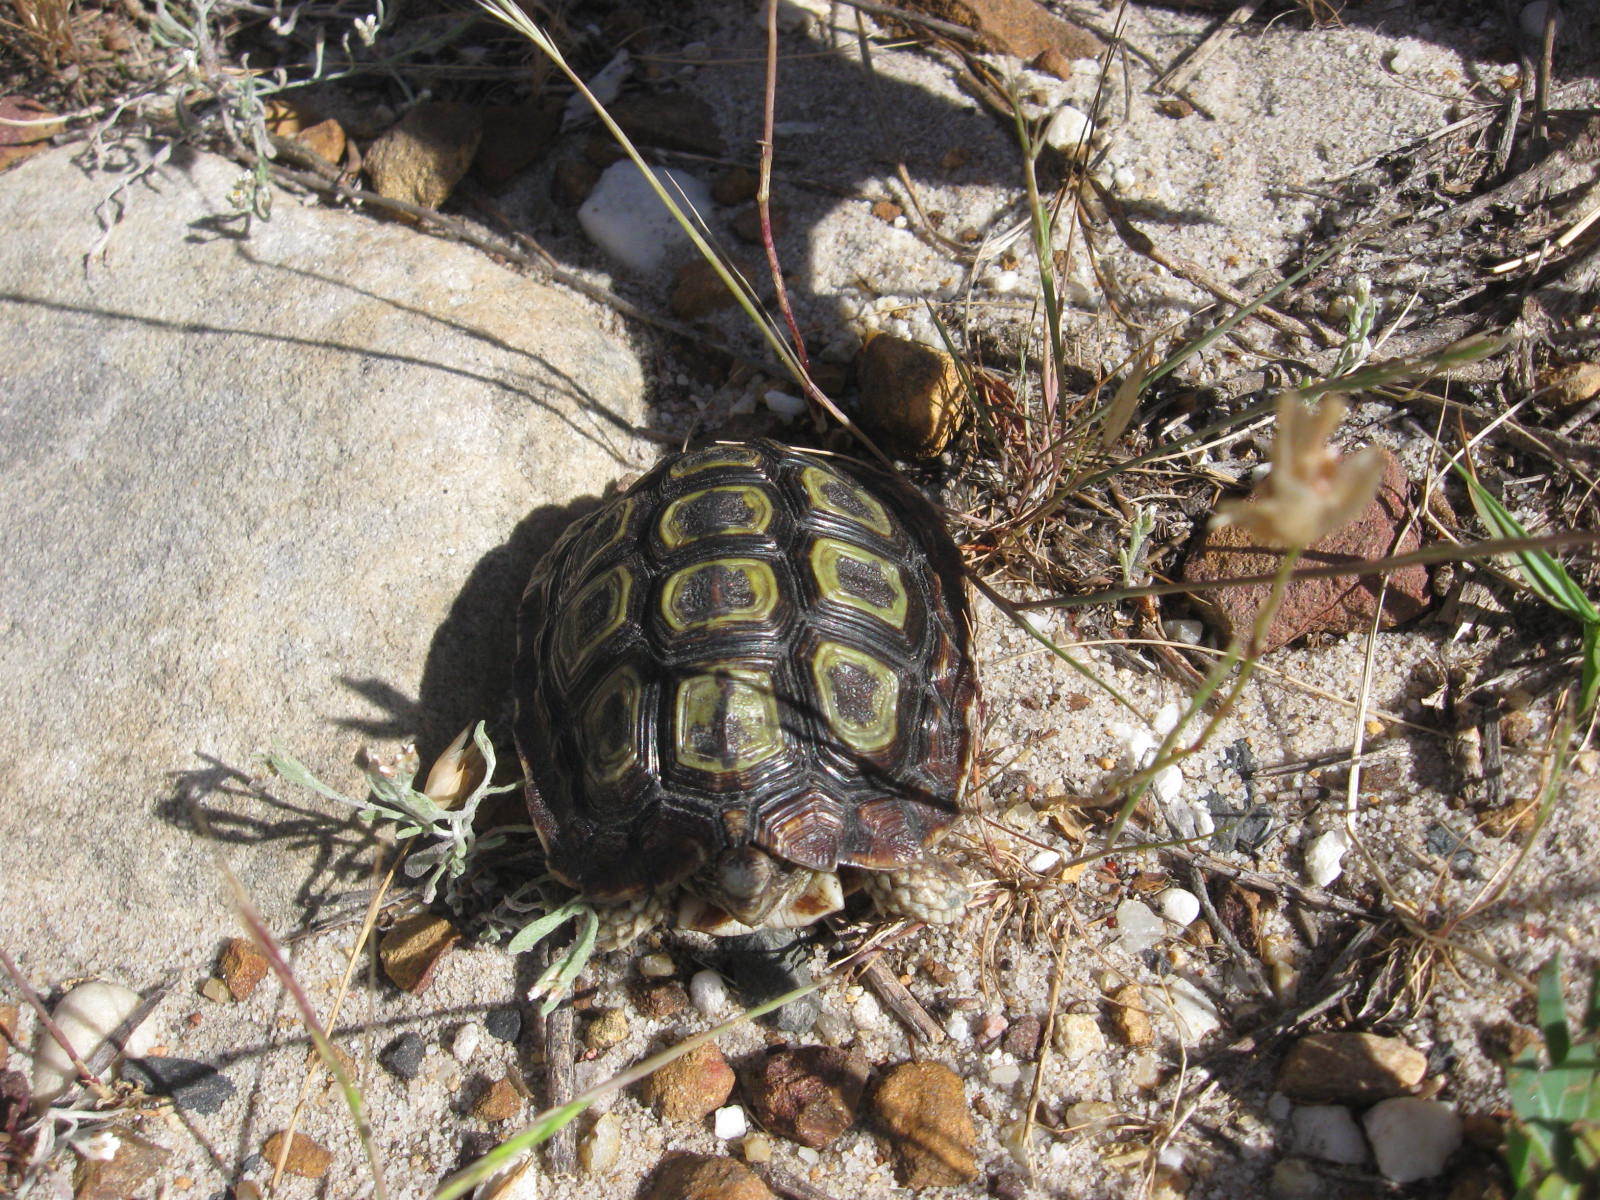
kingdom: Animalia
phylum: Chordata
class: Testudines
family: Testudinidae
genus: Homopus
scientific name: Homopus areolatus
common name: Parrot-beaked tortoise
